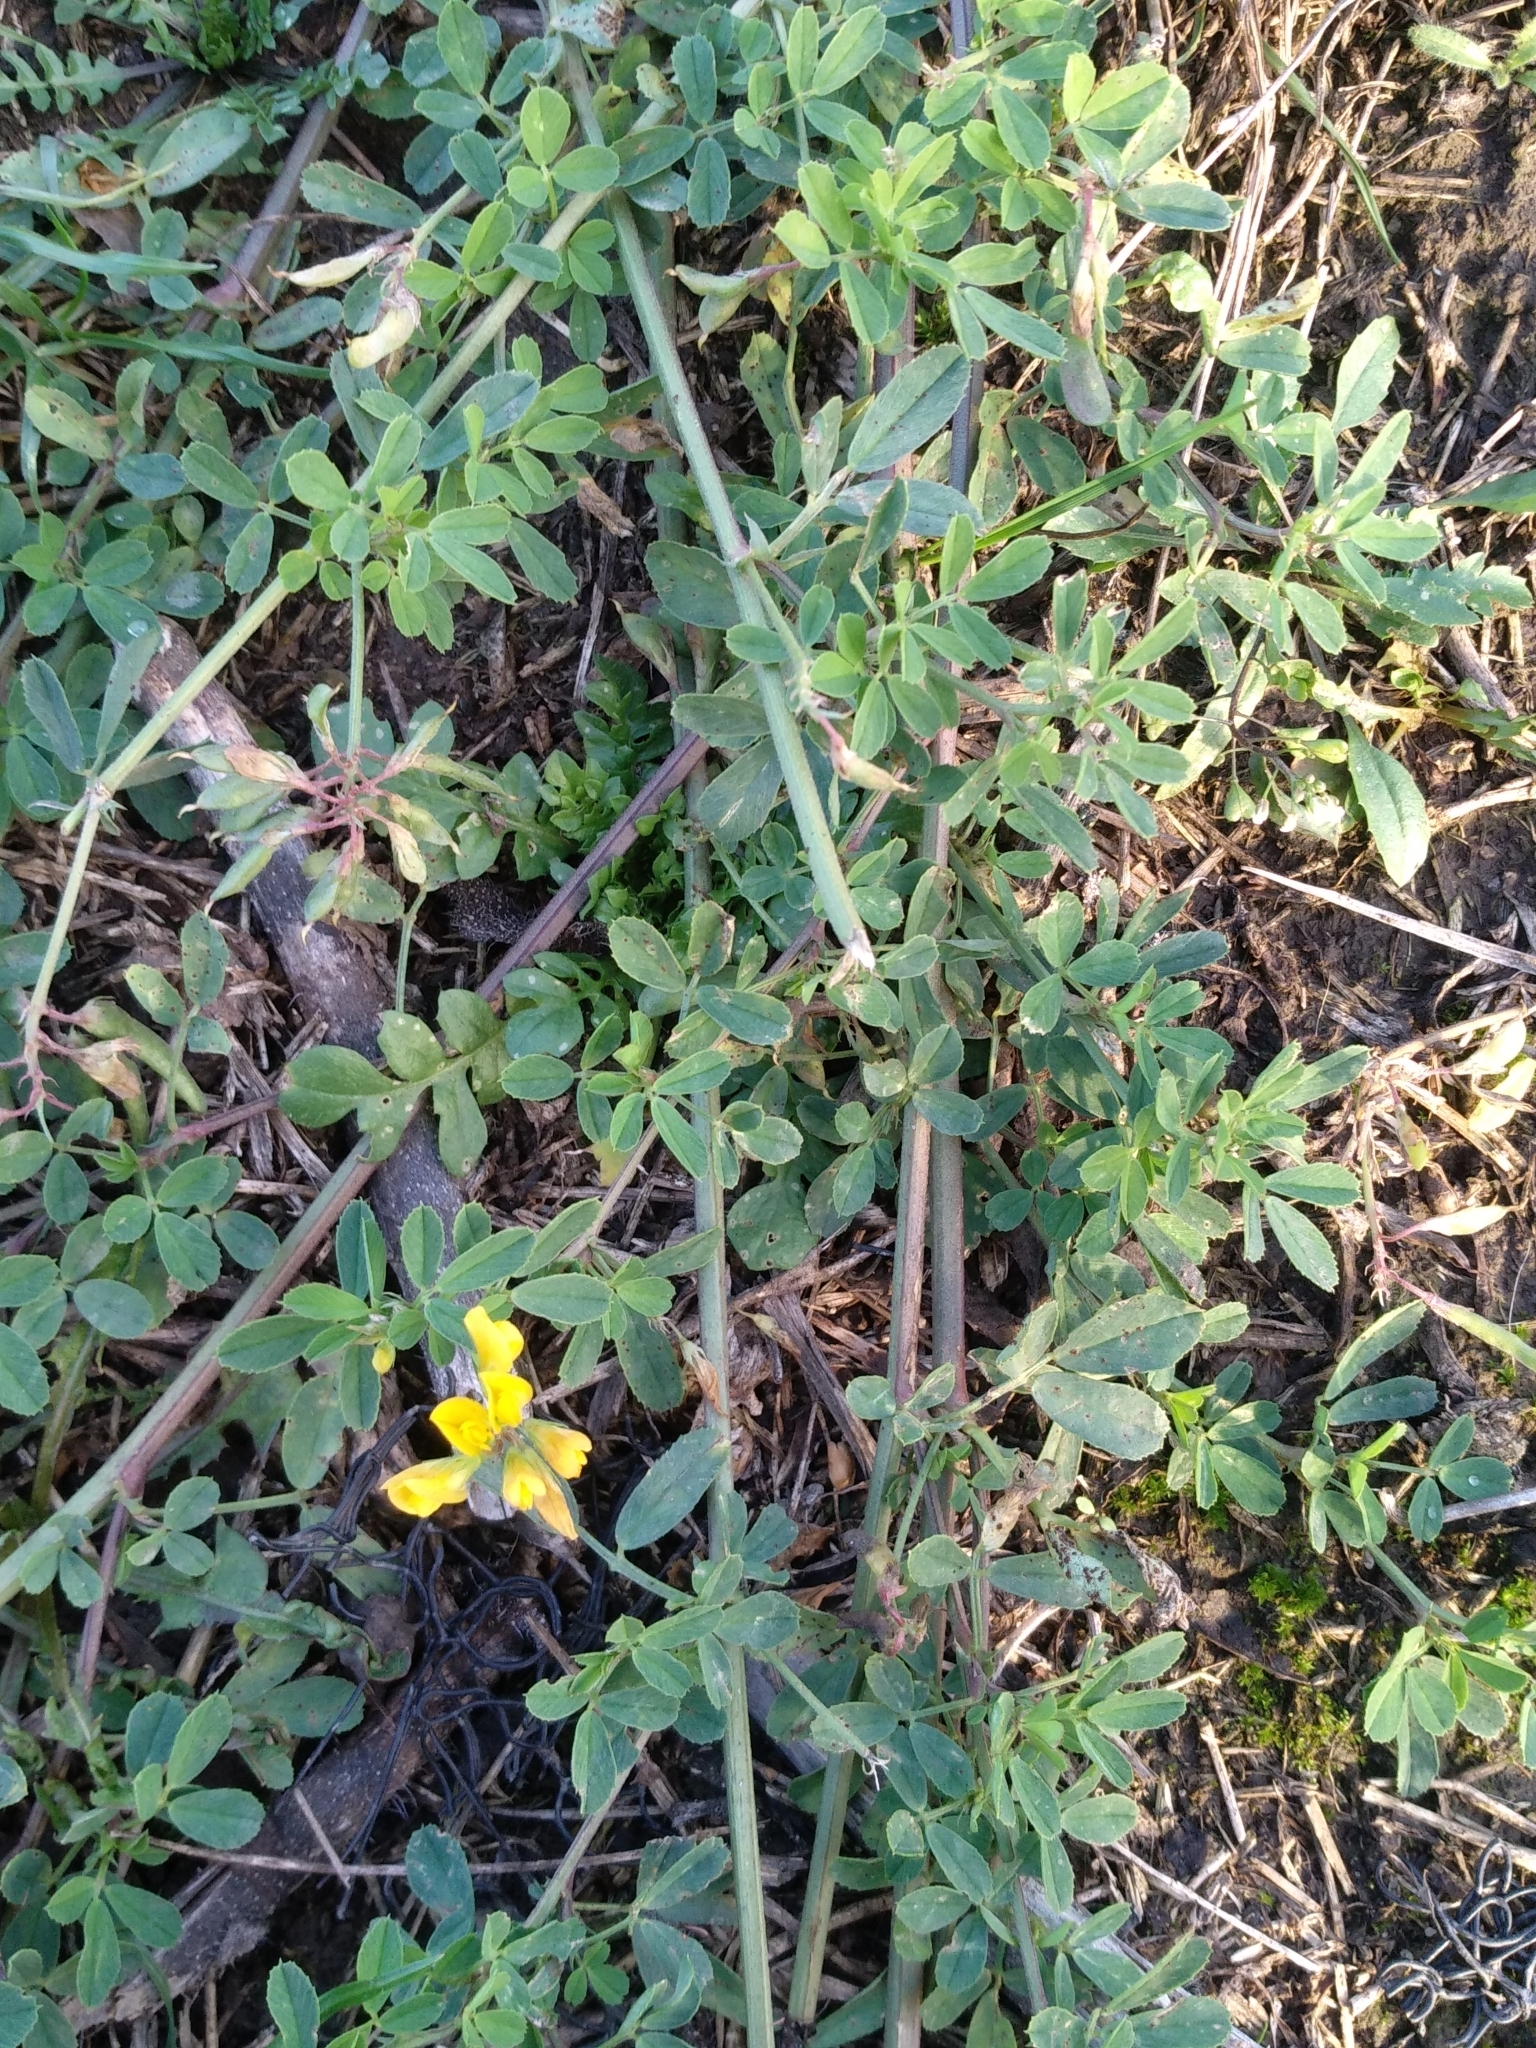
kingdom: Plantae
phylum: Tracheophyta
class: Magnoliopsida
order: Fabales
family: Fabaceae
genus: Medicago
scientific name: Medicago falcata
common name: Sickle medick
